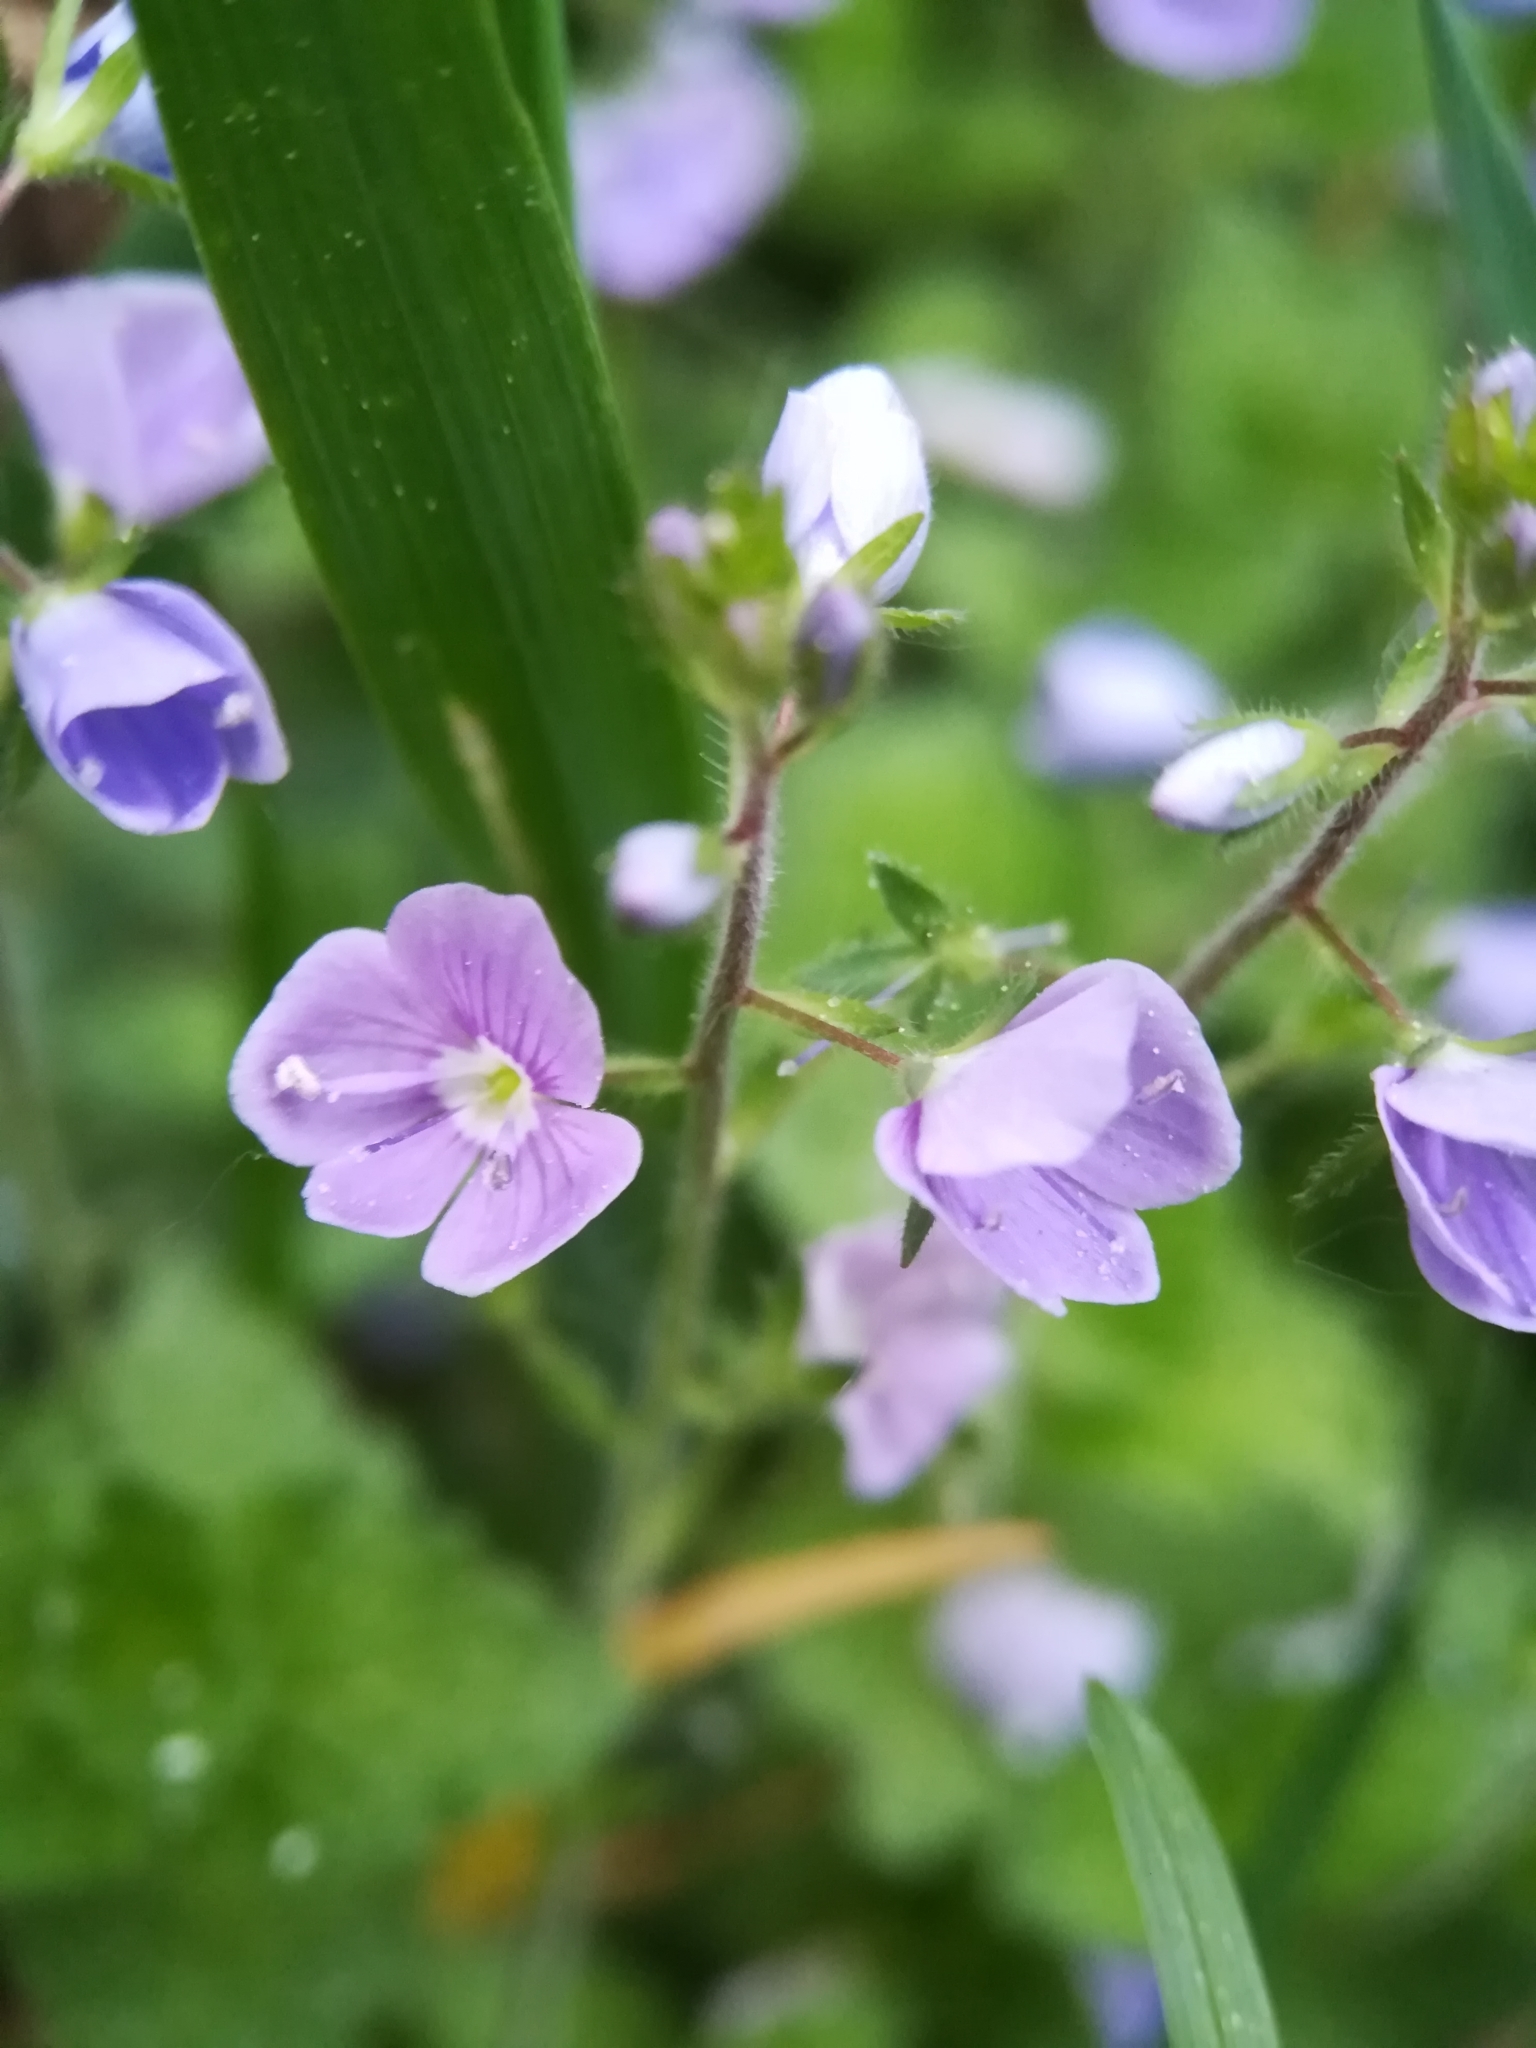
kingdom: Plantae
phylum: Tracheophyta
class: Magnoliopsida
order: Lamiales
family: Plantaginaceae
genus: Veronica
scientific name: Veronica chamaedrys
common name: Germander speedwell
